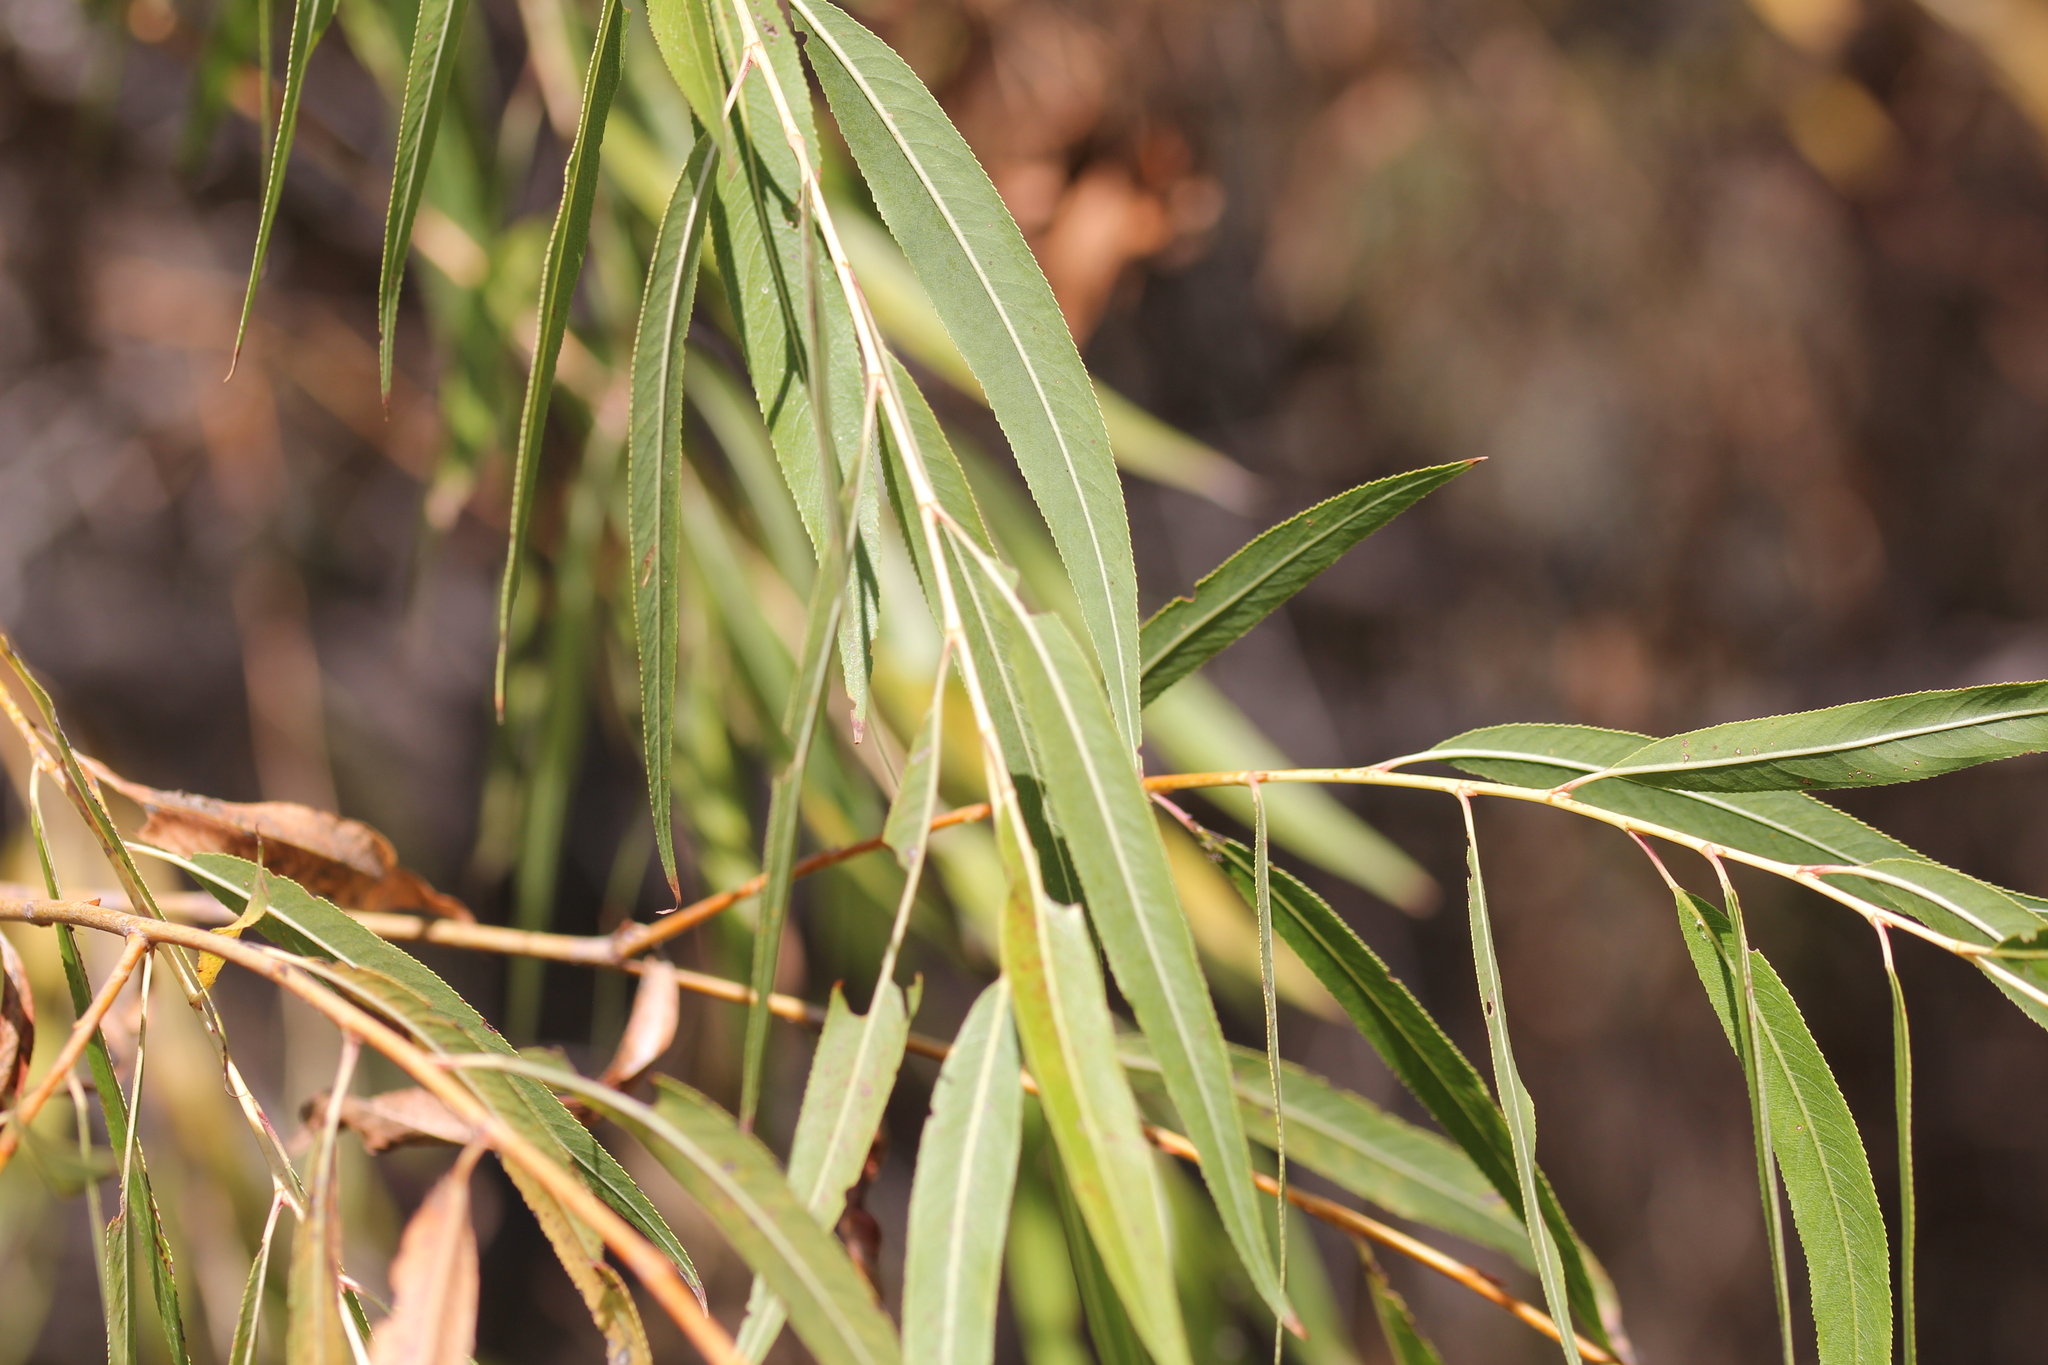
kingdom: Plantae
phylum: Tracheophyta
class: Magnoliopsida
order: Malpighiales
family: Salicaceae
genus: Salix
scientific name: Salix gooddingii
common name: Goodding's willow
